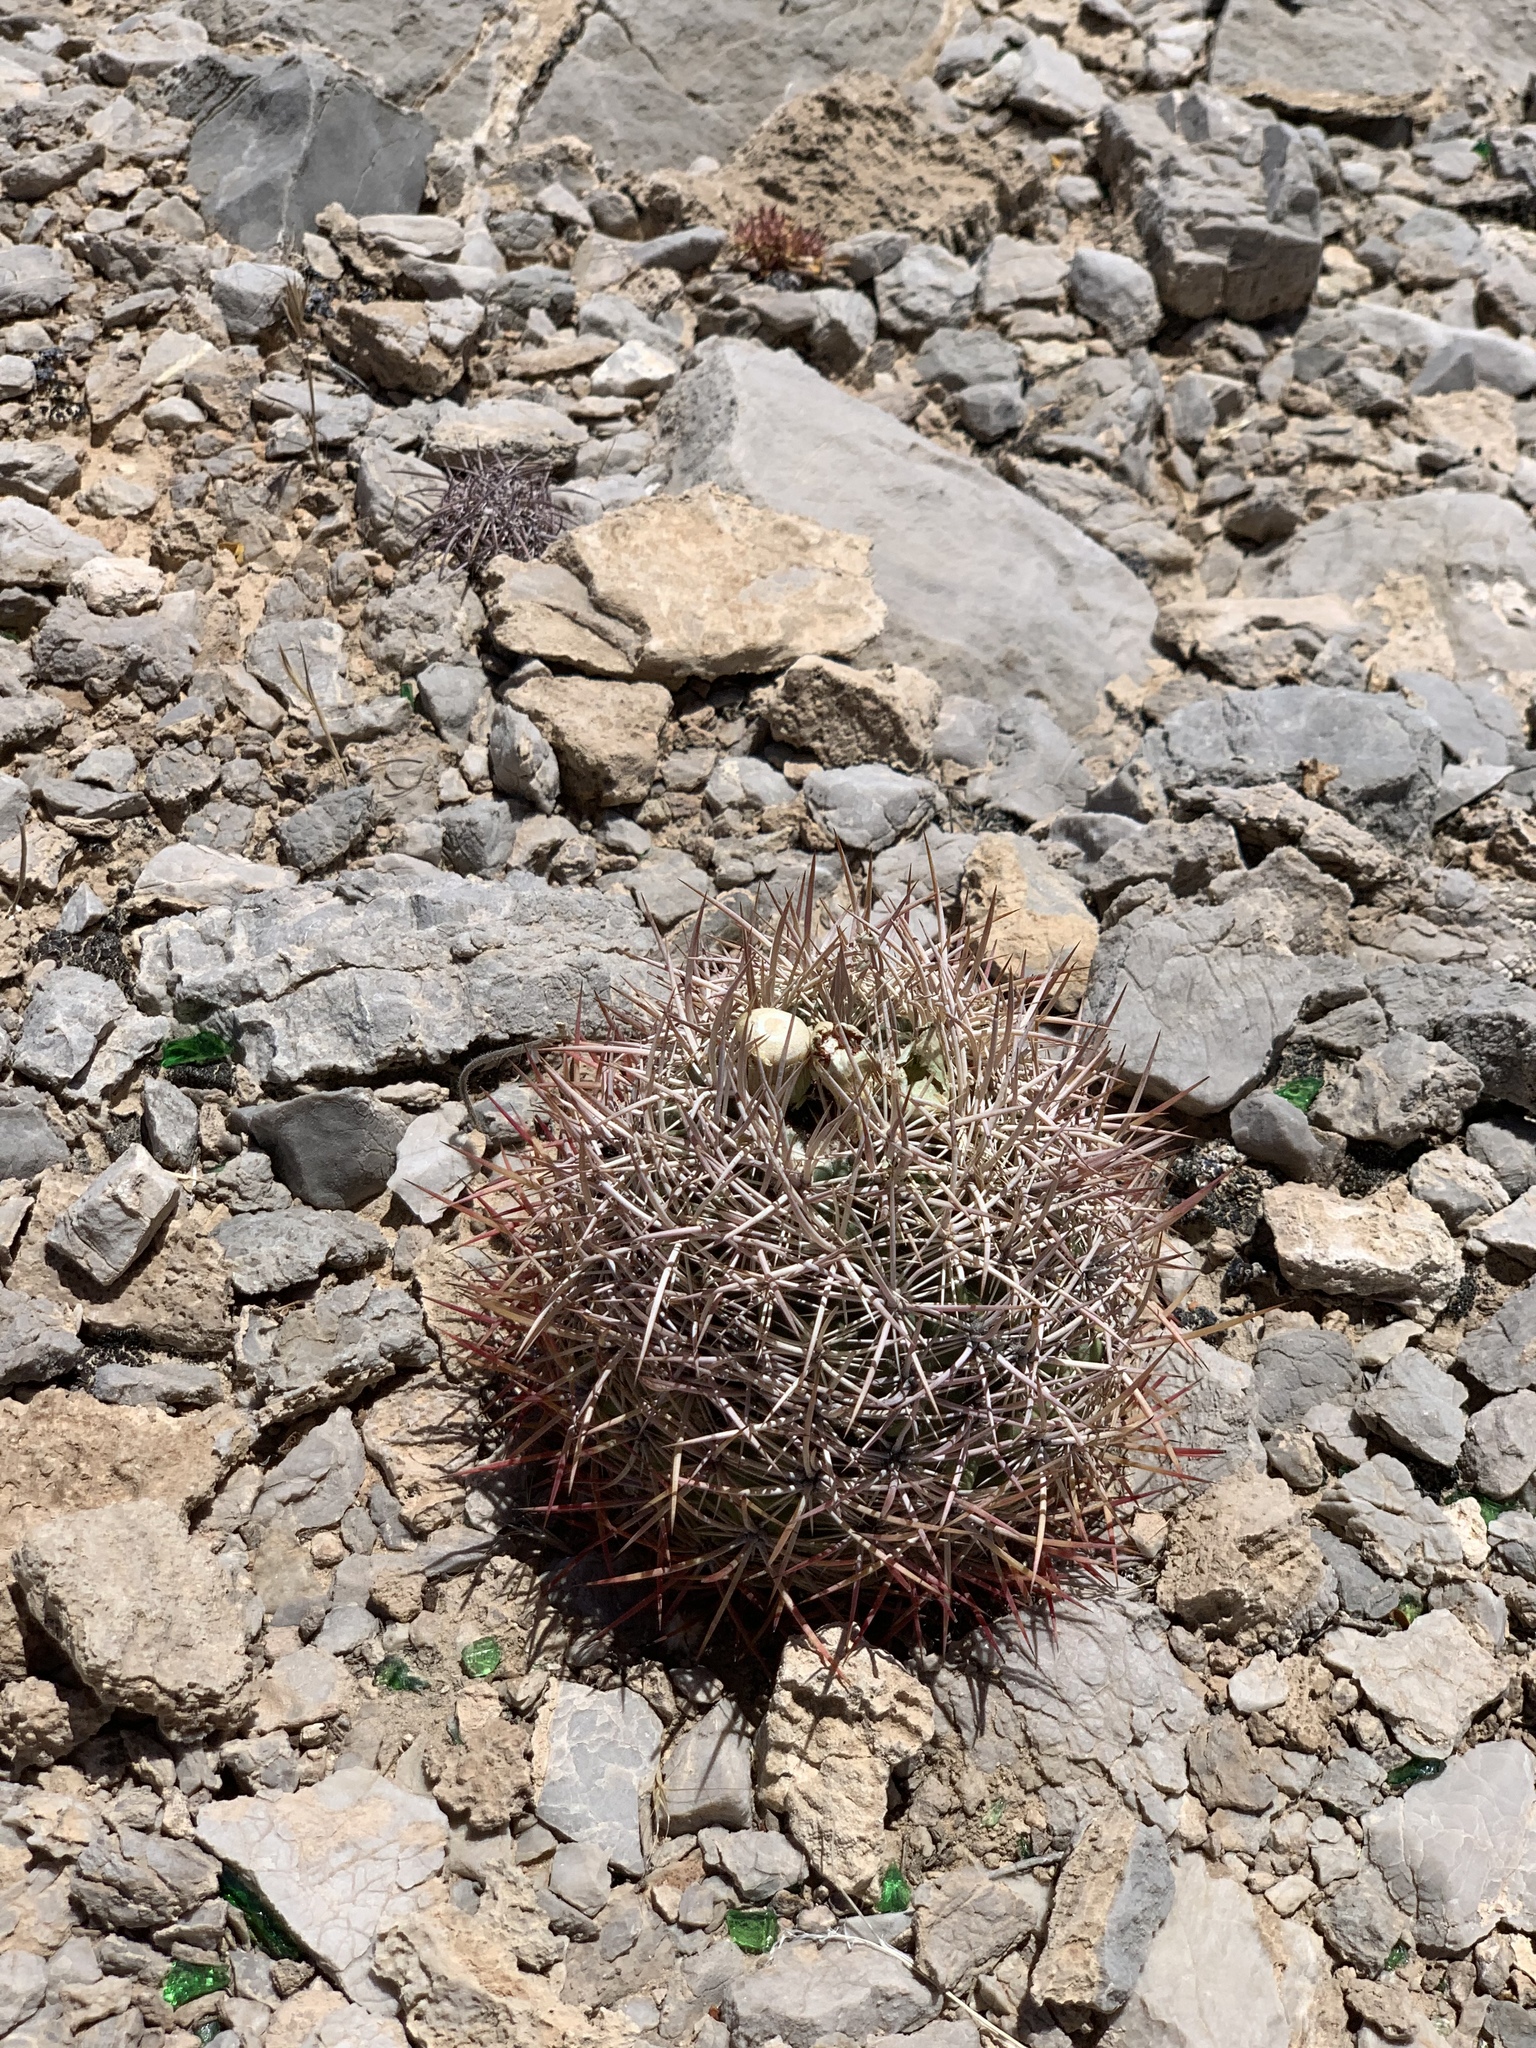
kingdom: Plantae
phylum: Tracheophyta
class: Magnoliopsida
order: Caryophyllales
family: Cactaceae
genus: Sclerocactus
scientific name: Sclerocactus johnsonii
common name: Eight-spine fishhook cactus
